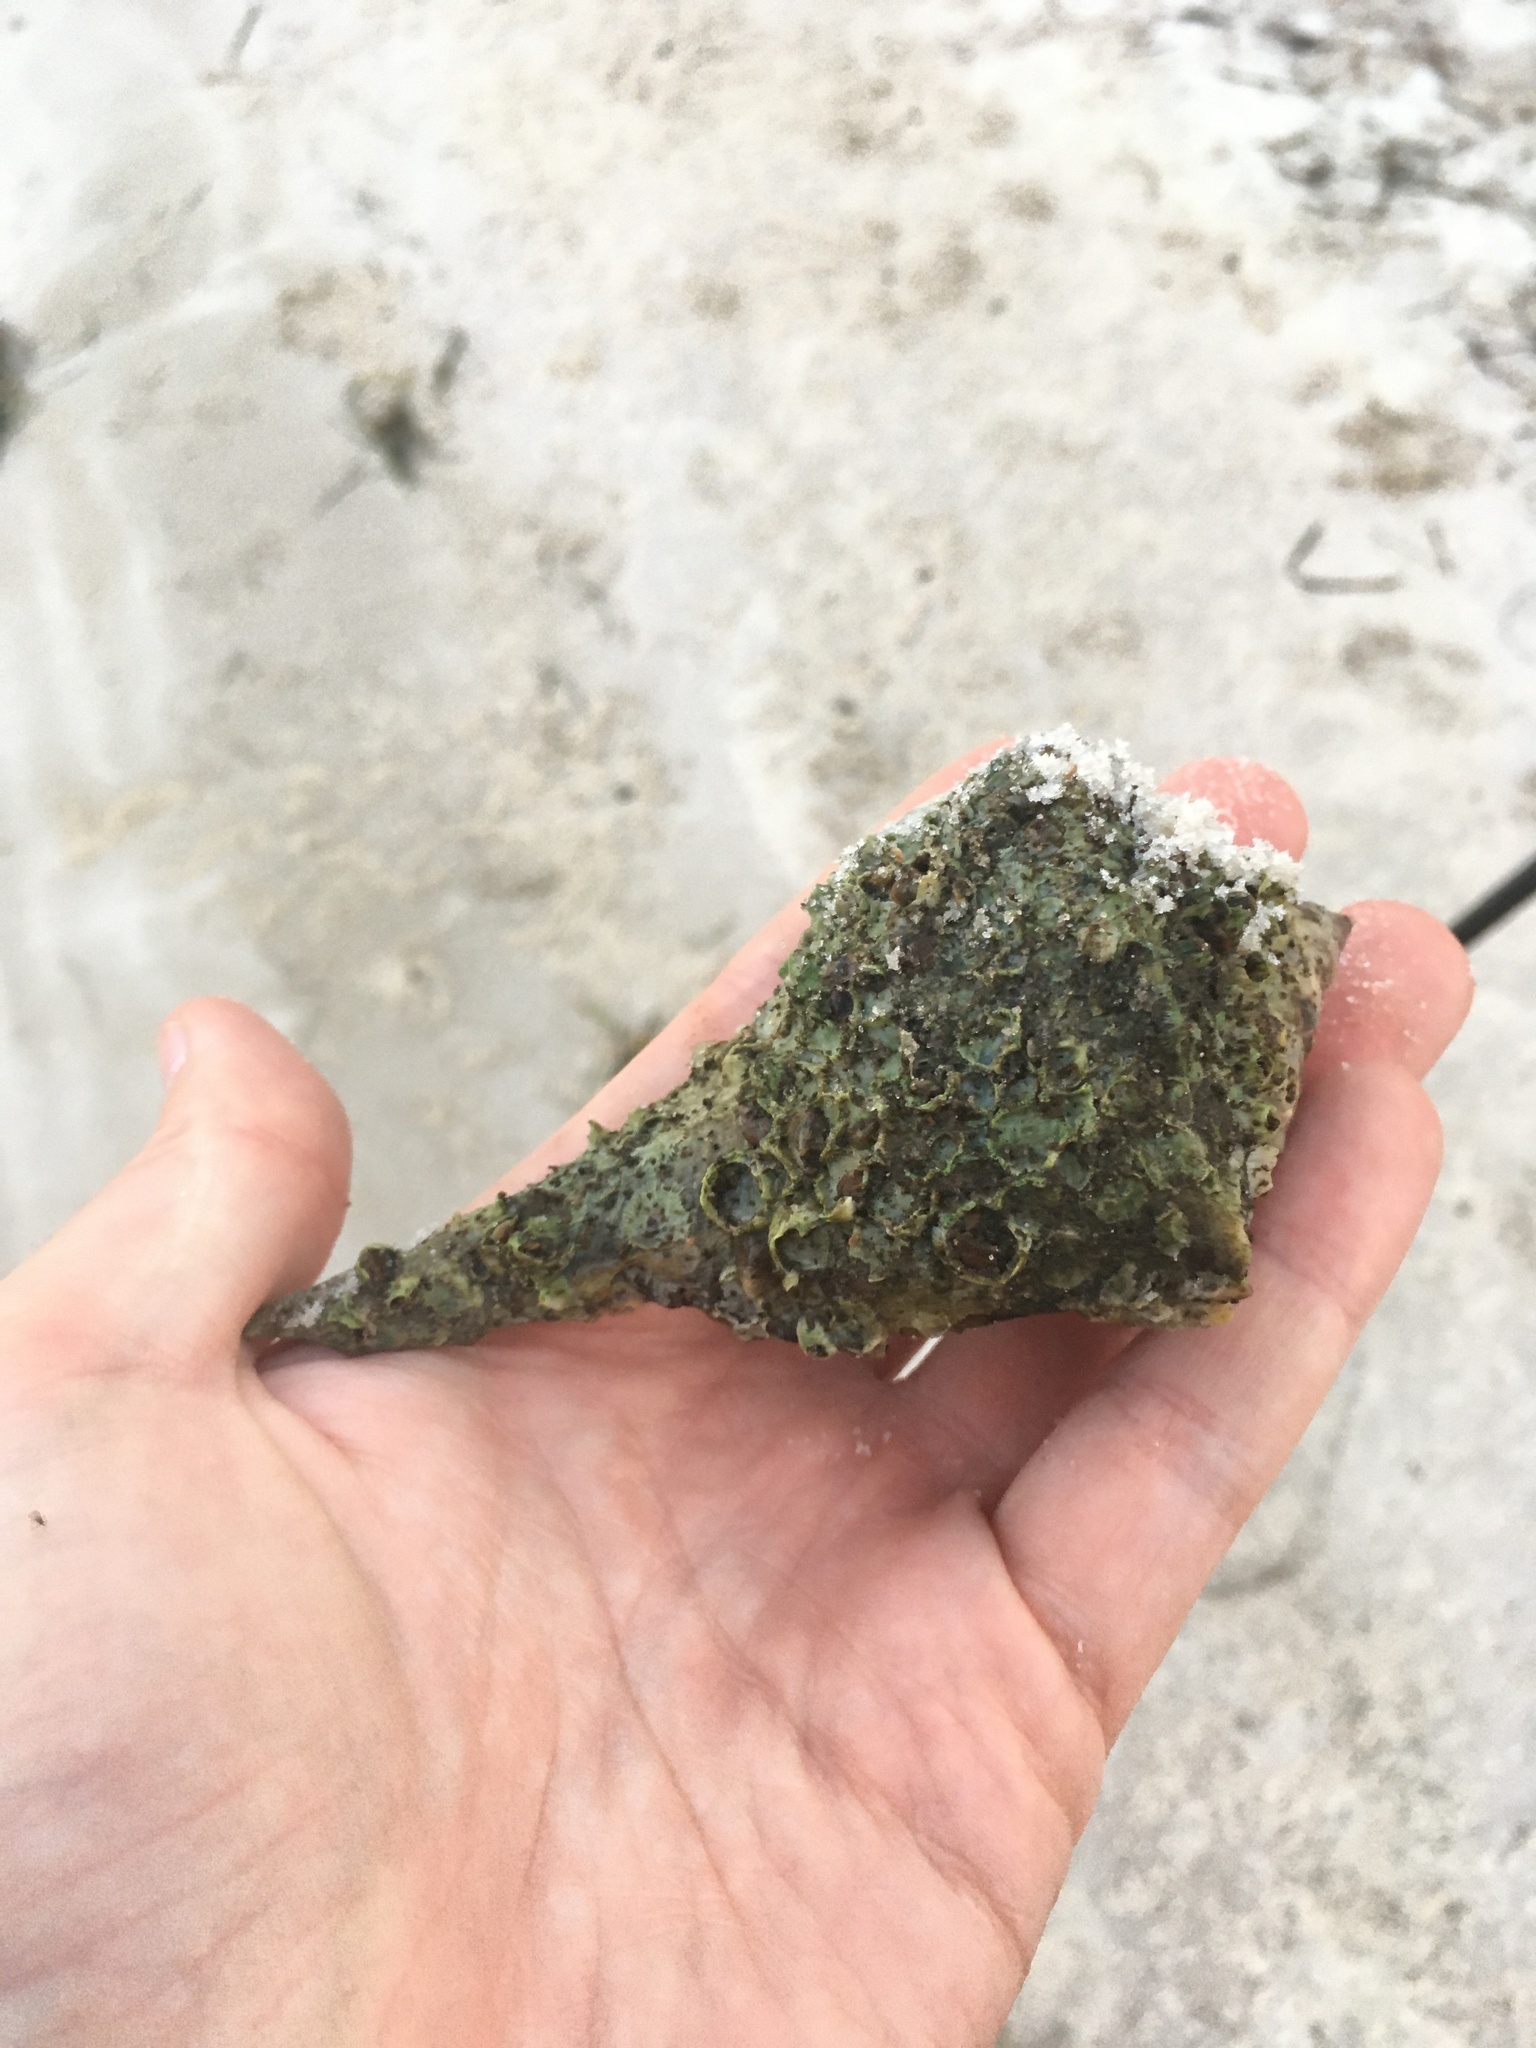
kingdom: Animalia
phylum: Mollusca
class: Gastropoda
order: Neogastropoda
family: Busyconidae
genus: Sinistrofulgur
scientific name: Sinistrofulgur sinistrum
